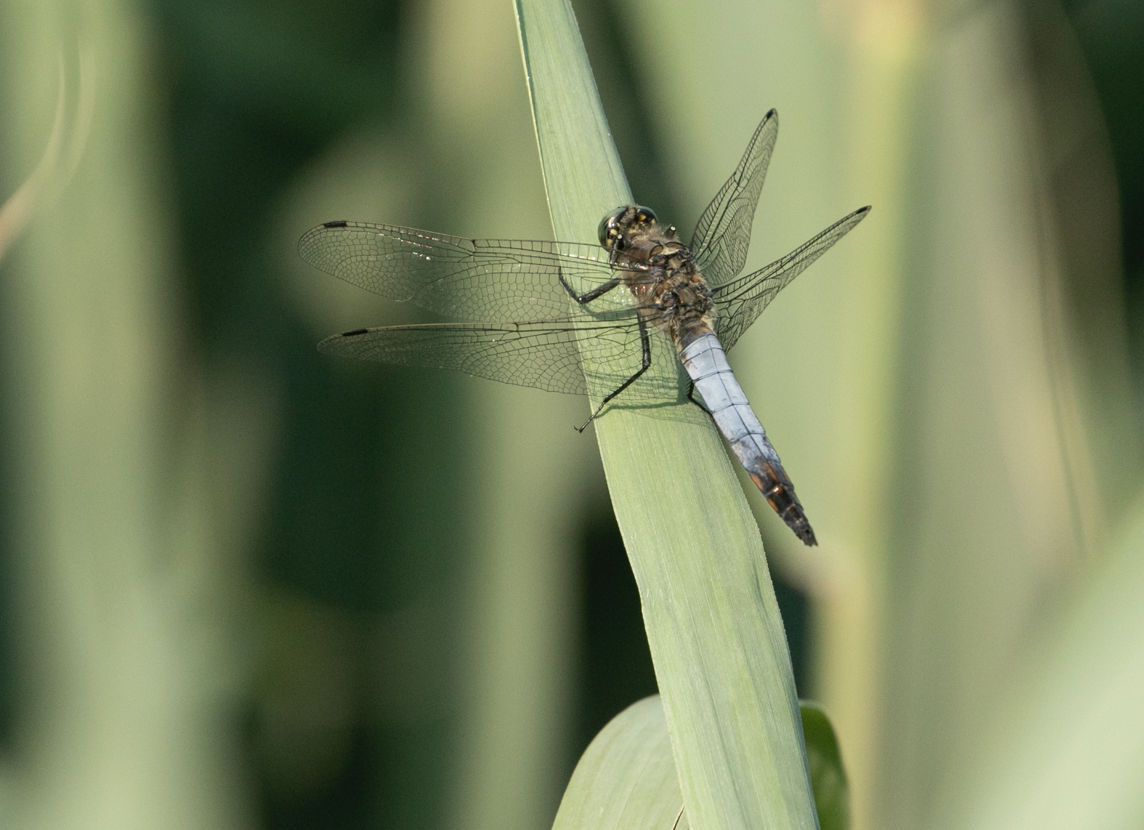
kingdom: Animalia
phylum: Arthropoda
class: Insecta
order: Odonata
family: Libellulidae
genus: Orthetrum
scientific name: Orthetrum cancellatum
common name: Black-tailed skimmer
